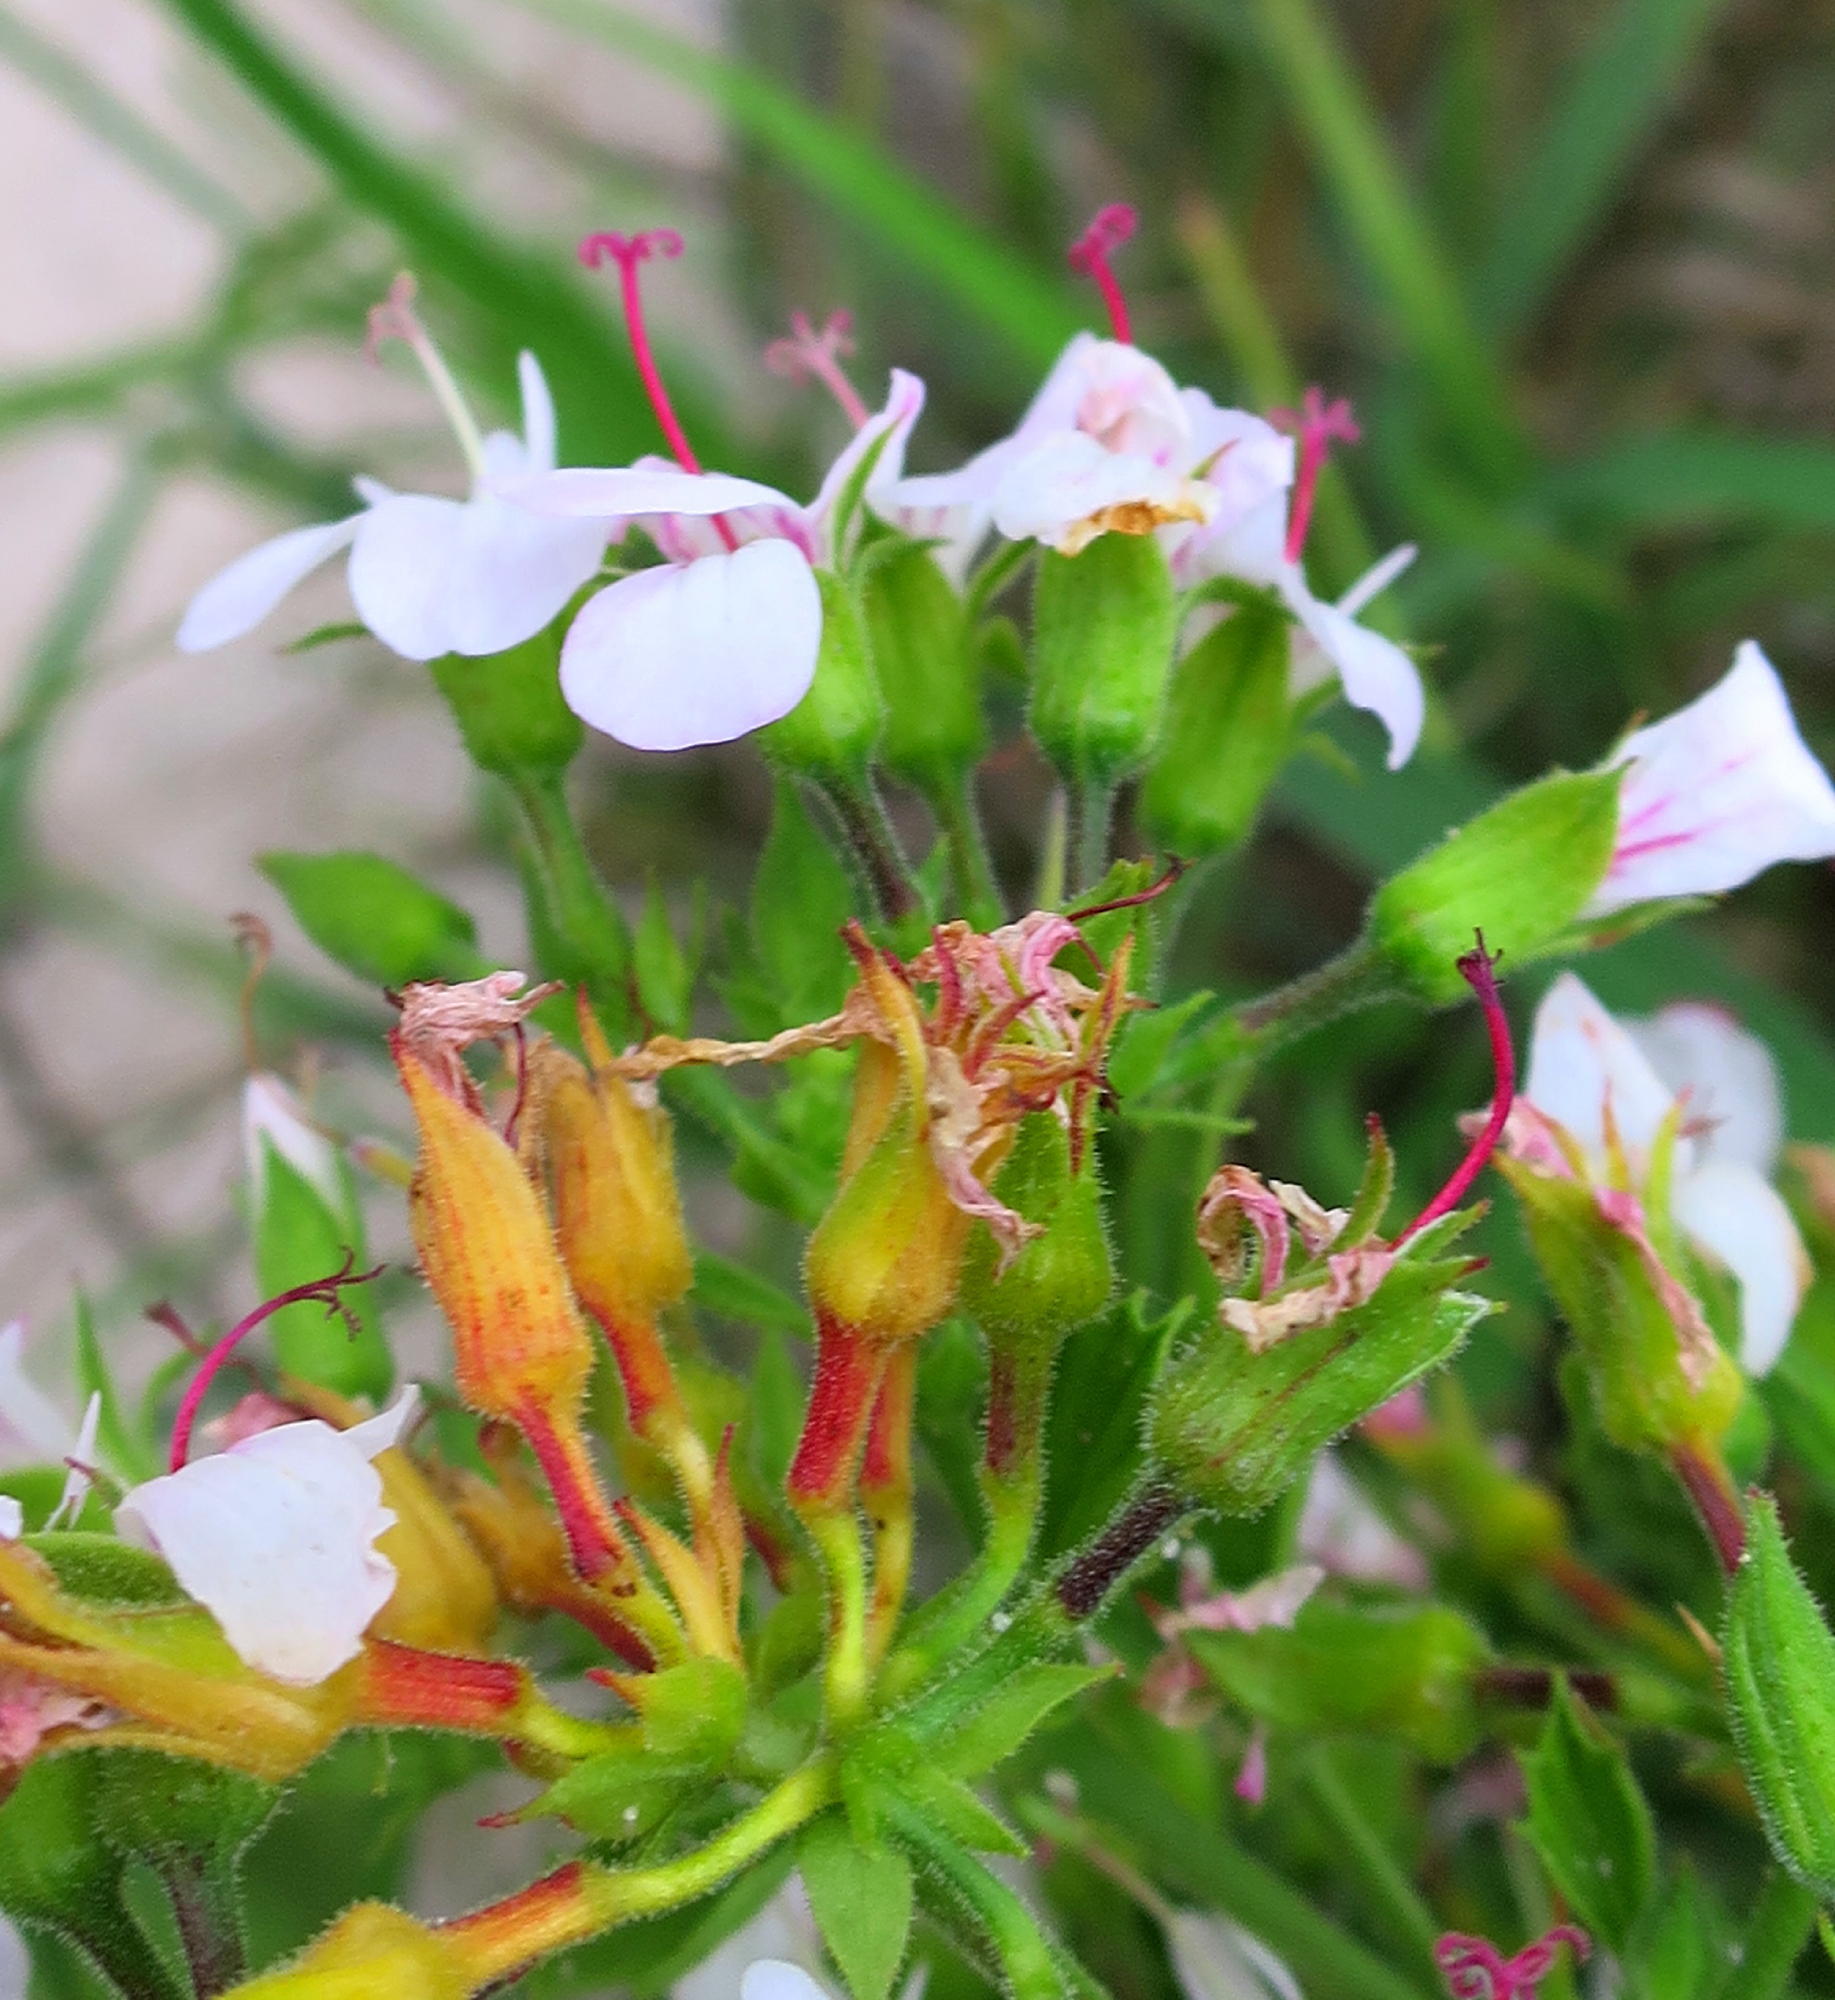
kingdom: Plantae
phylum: Tracheophyta
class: Magnoliopsida
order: Geraniales
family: Geraniaceae
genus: Pelargonium
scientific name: Pelargonium ribifolium
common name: Currant-leaf pelargonium
